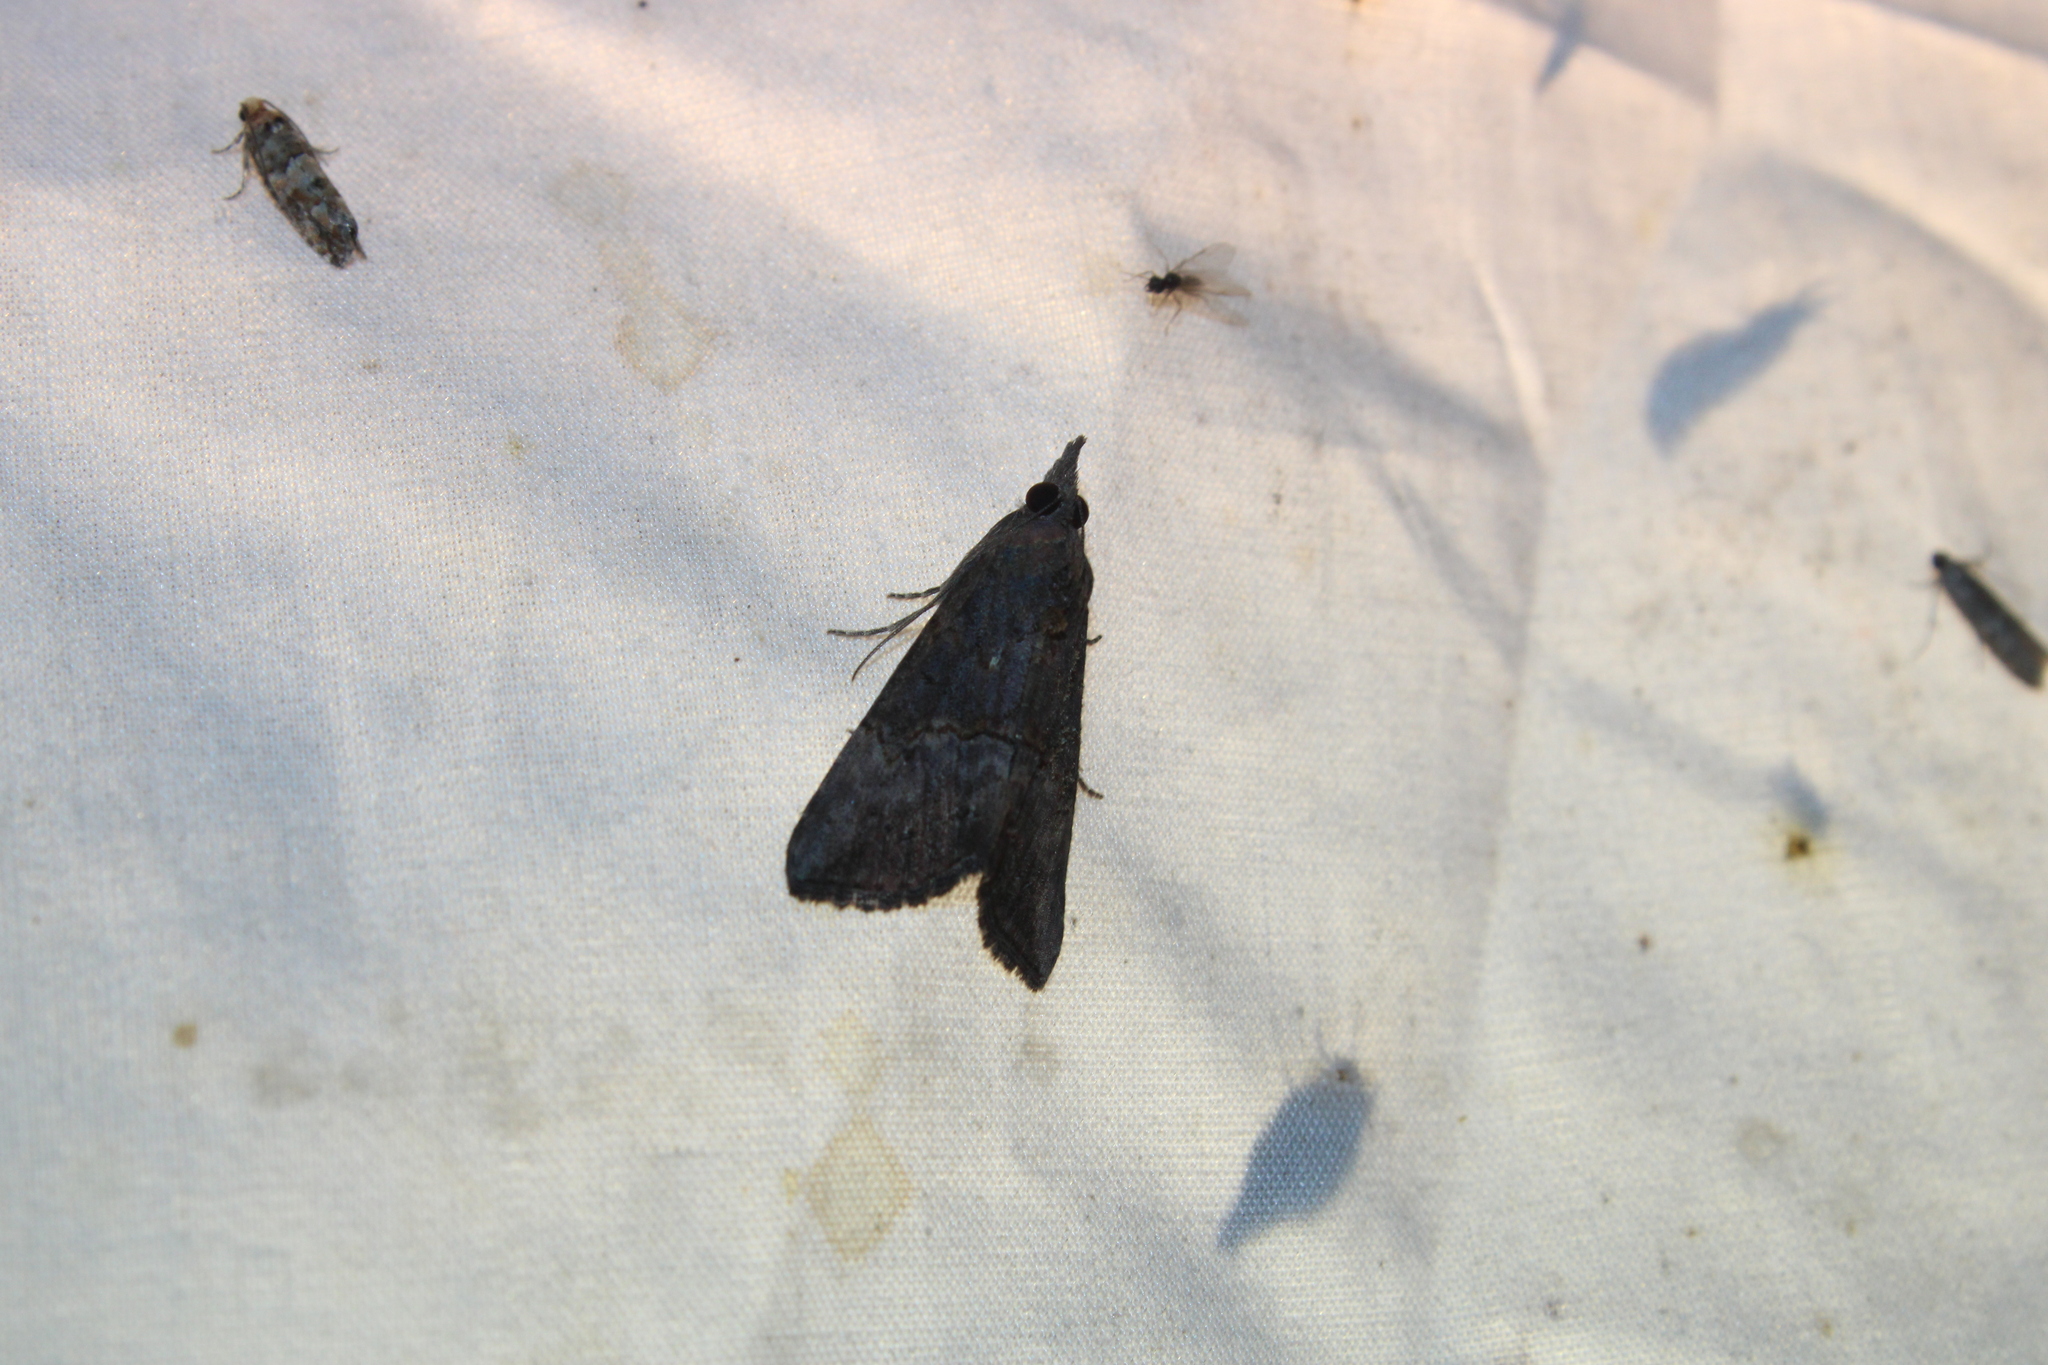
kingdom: Animalia
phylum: Arthropoda
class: Insecta
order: Lepidoptera
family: Erebidae
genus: Hypena
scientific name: Hypena scabra
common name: Green cloverworm
